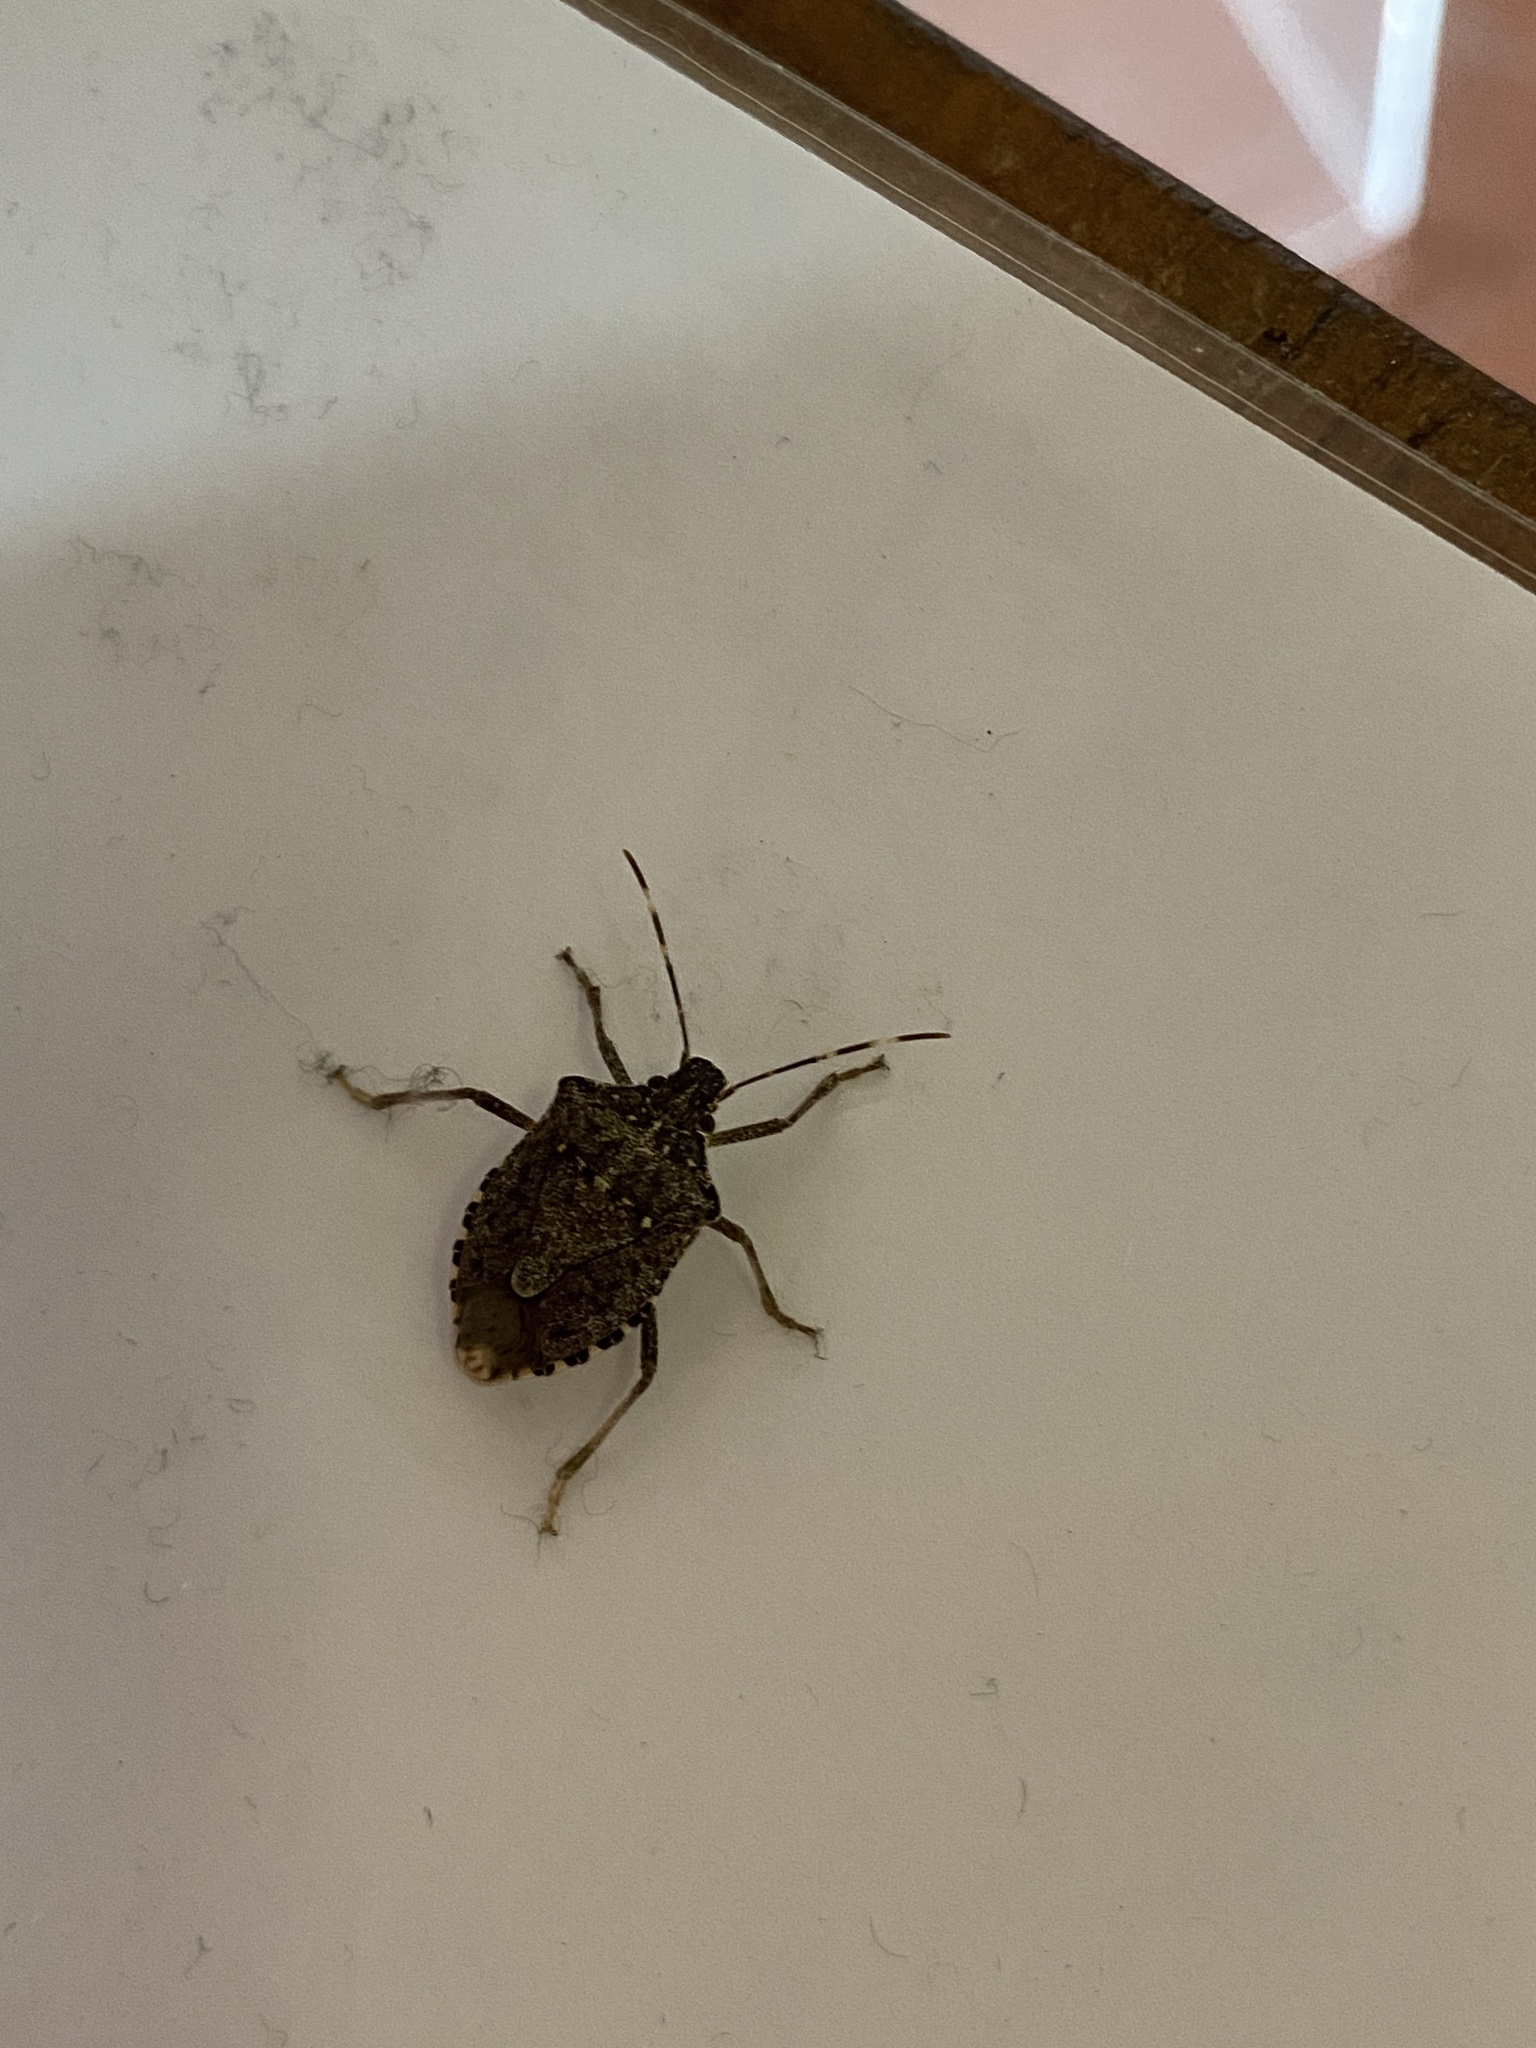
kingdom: Animalia
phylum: Arthropoda
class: Insecta
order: Hemiptera
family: Pentatomidae
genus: Halyomorpha
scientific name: Halyomorpha halys
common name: Brown marmorated stink bug
